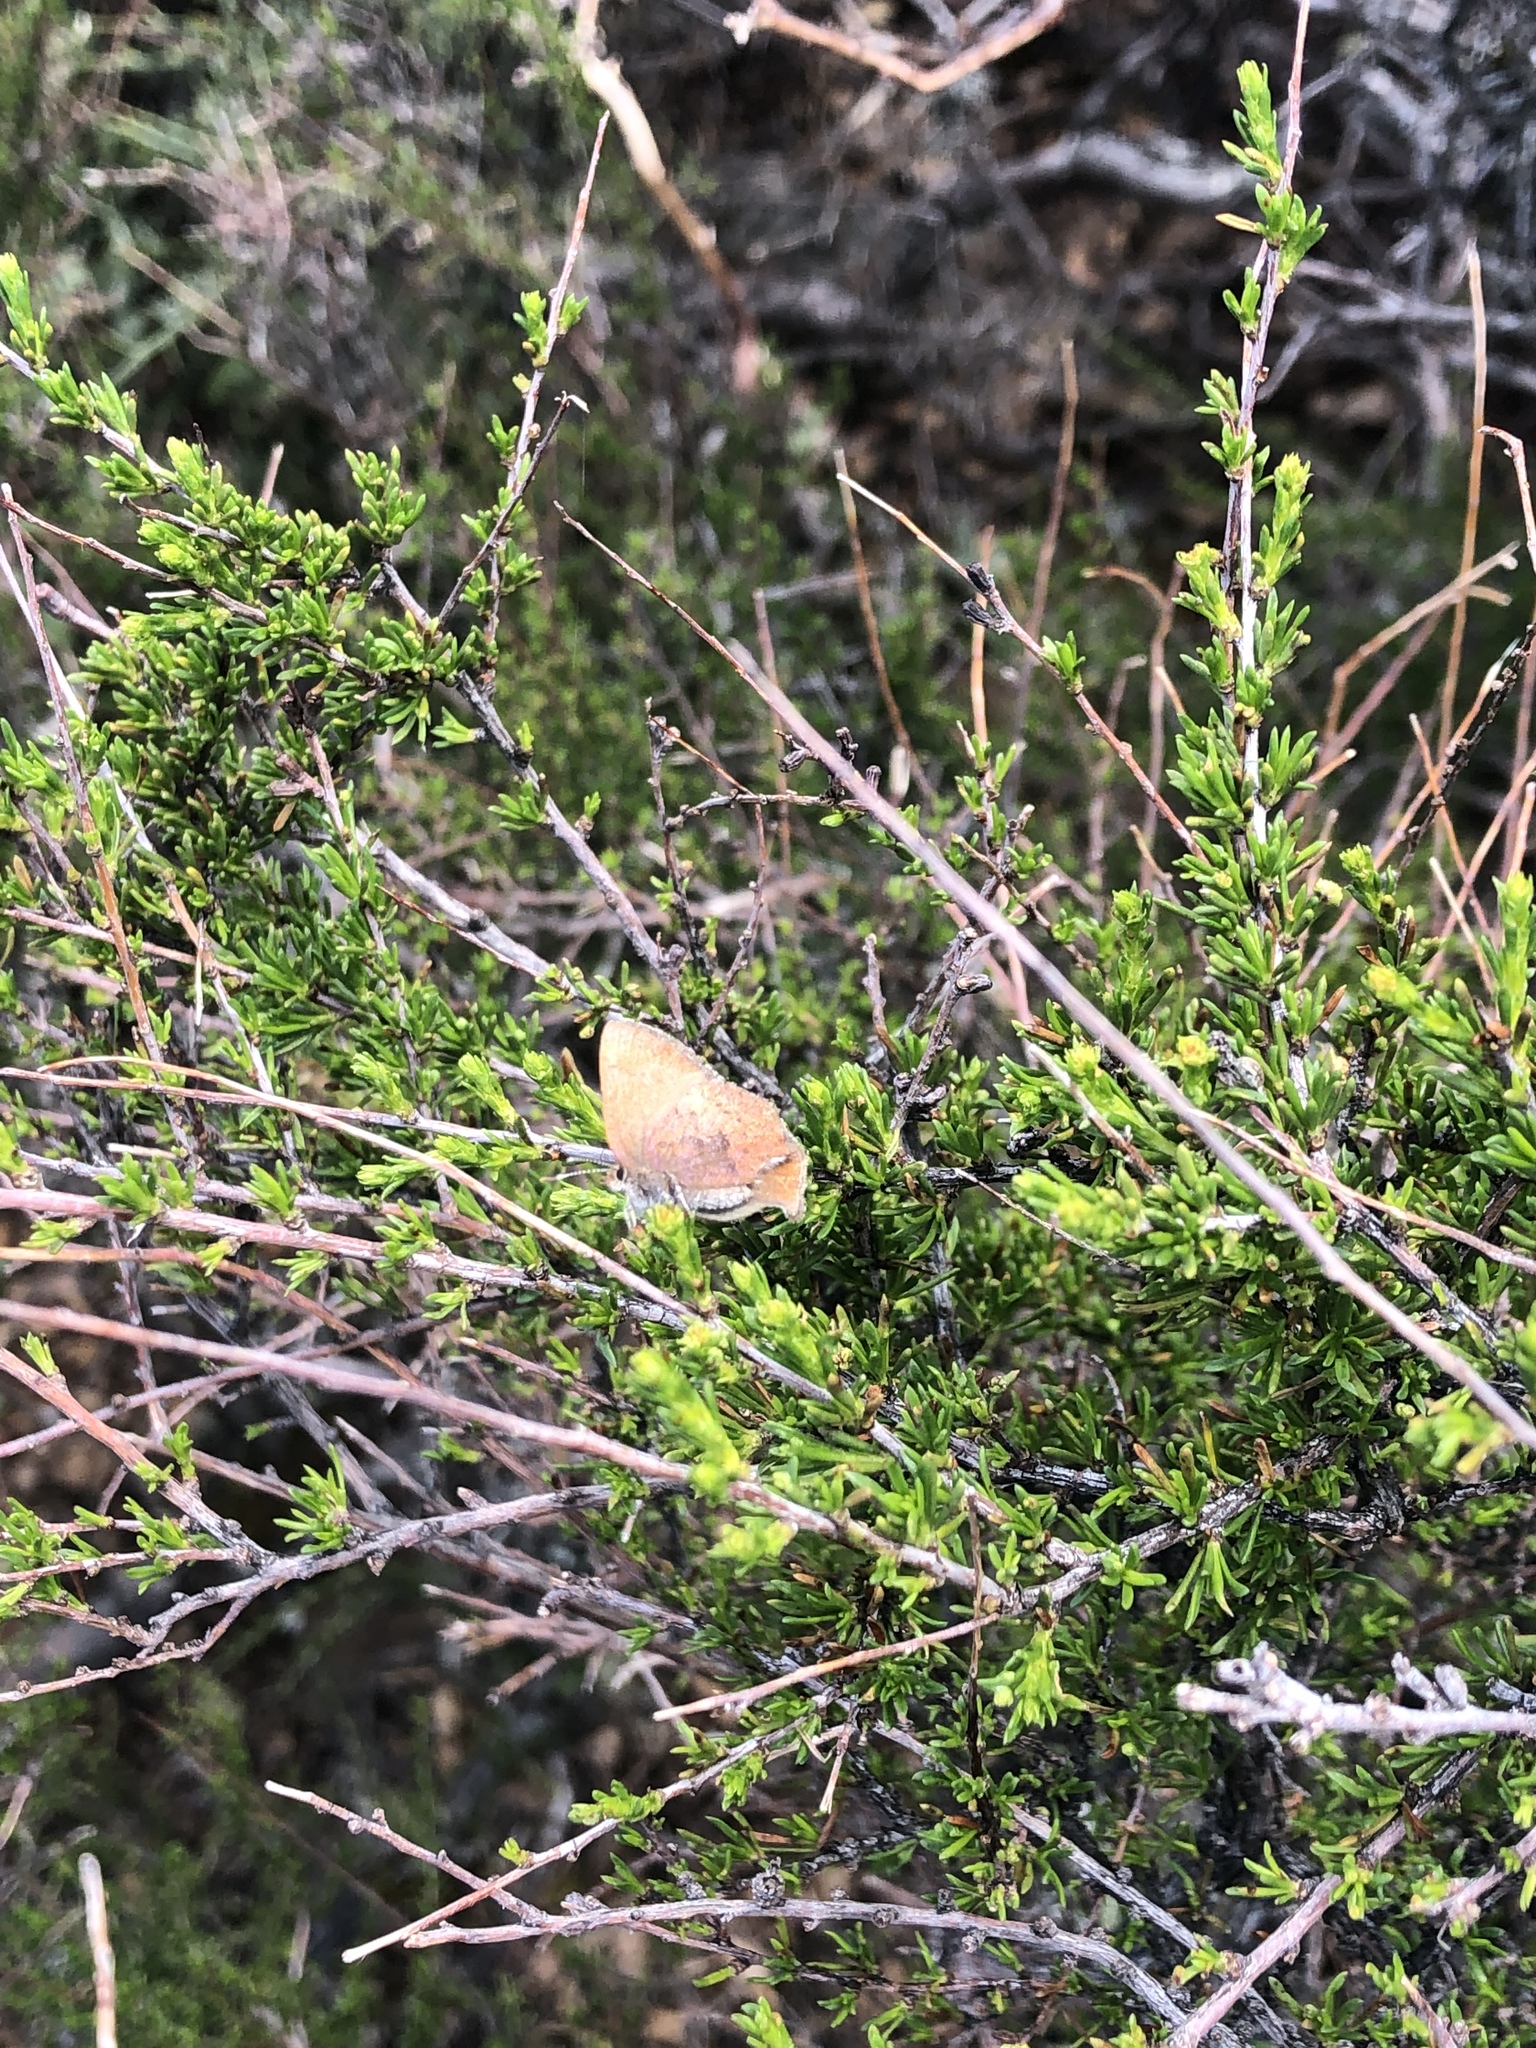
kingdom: Animalia
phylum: Arthropoda
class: Insecta
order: Lepidoptera
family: Lycaenidae
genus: Incisalia
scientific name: Incisalia irioides
